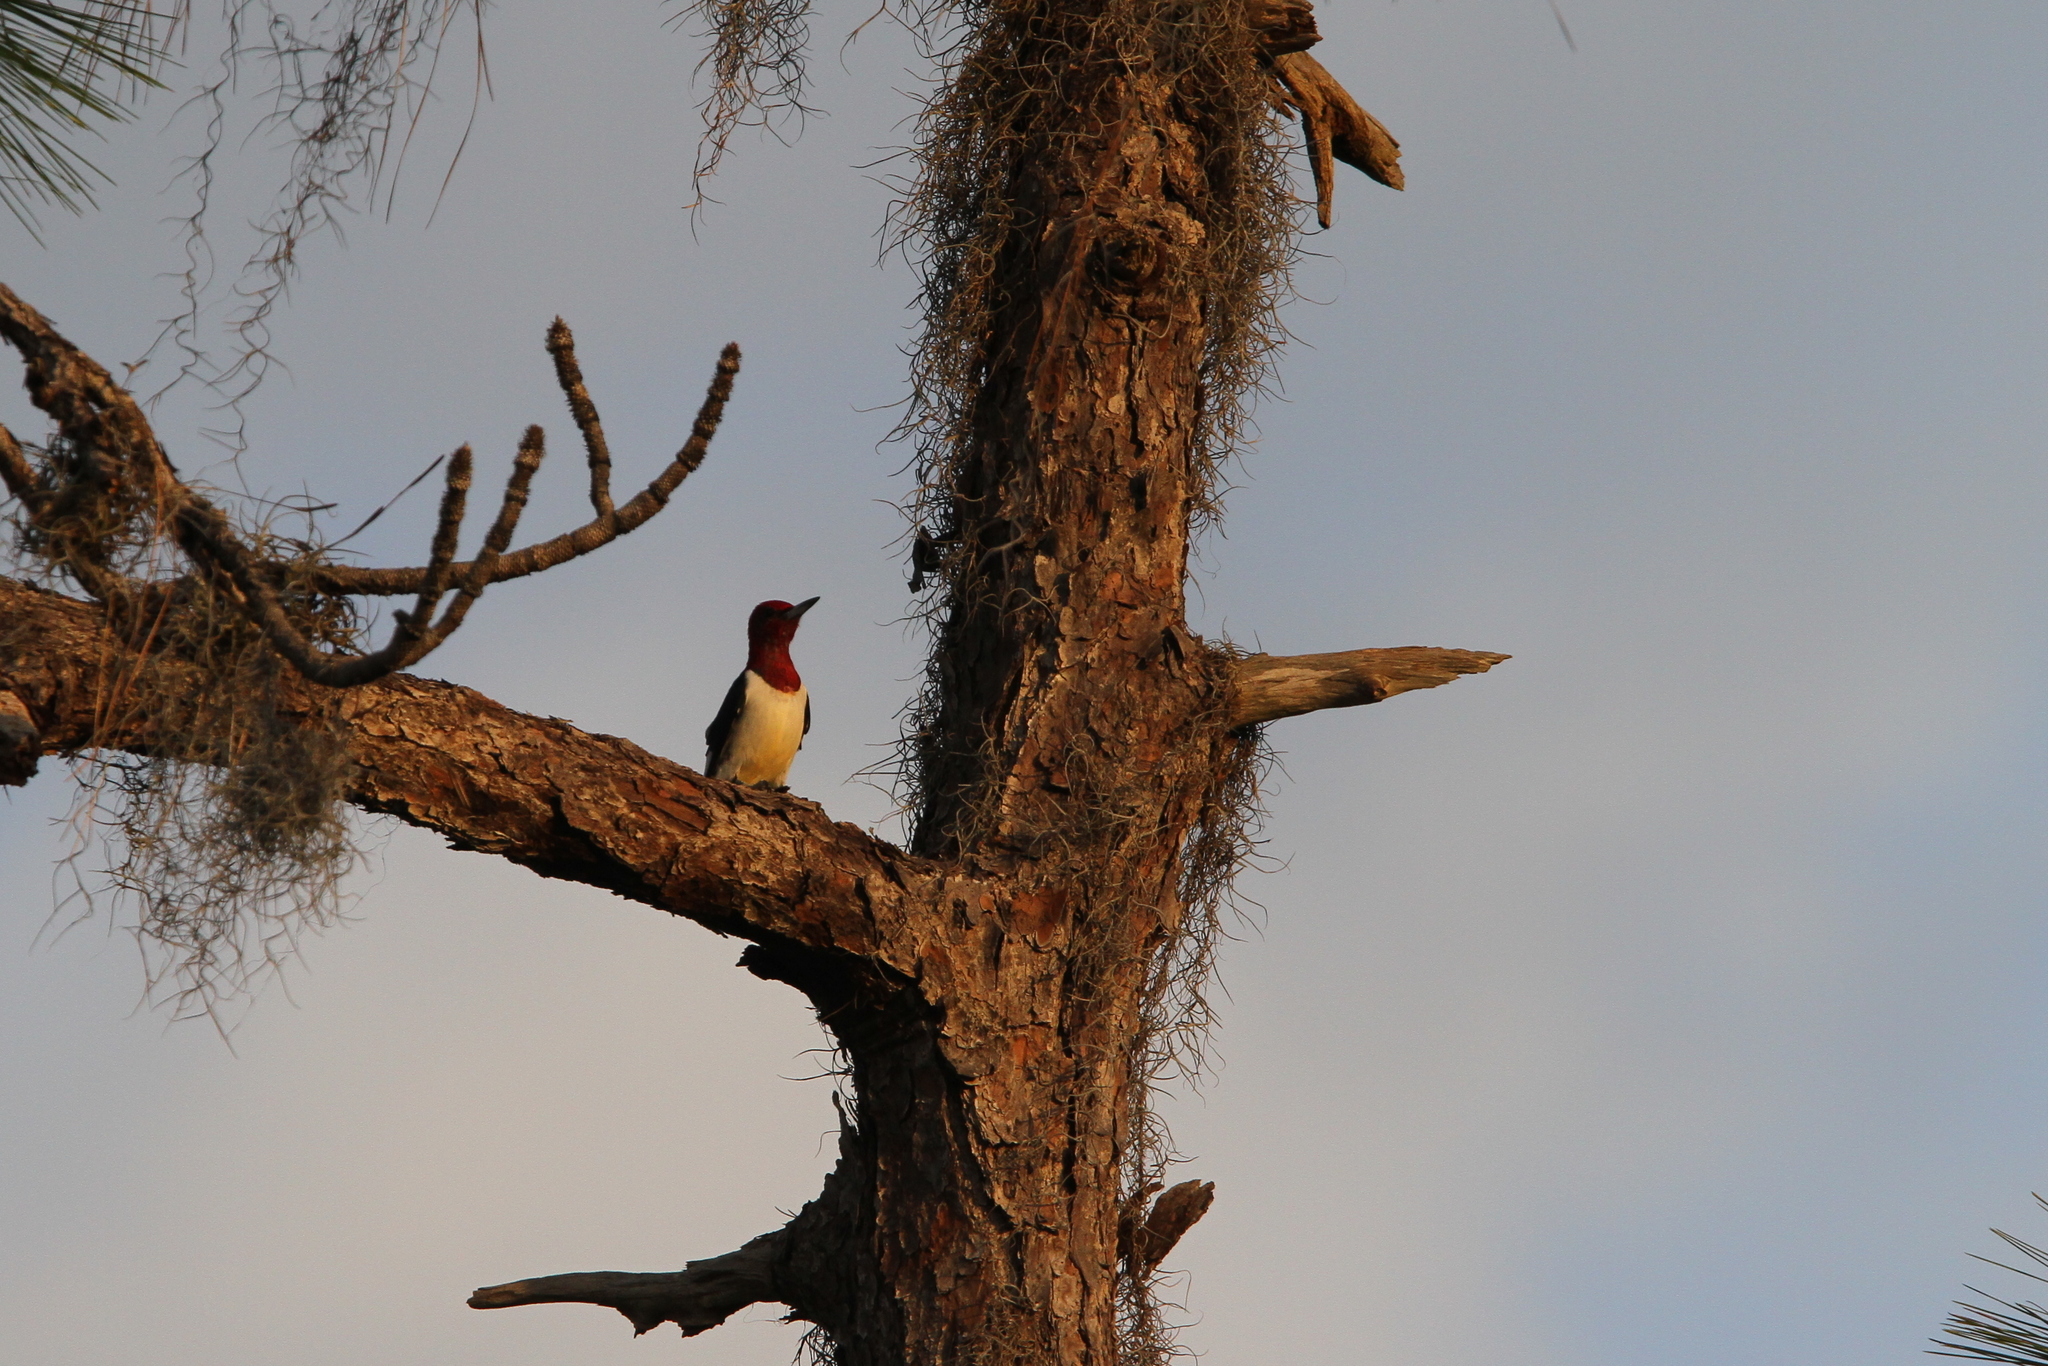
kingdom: Animalia
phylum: Chordata
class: Aves
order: Piciformes
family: Picidae
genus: Melanerpes
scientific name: Melanerpes erythrocephalus
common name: Red-headed woodpecker
